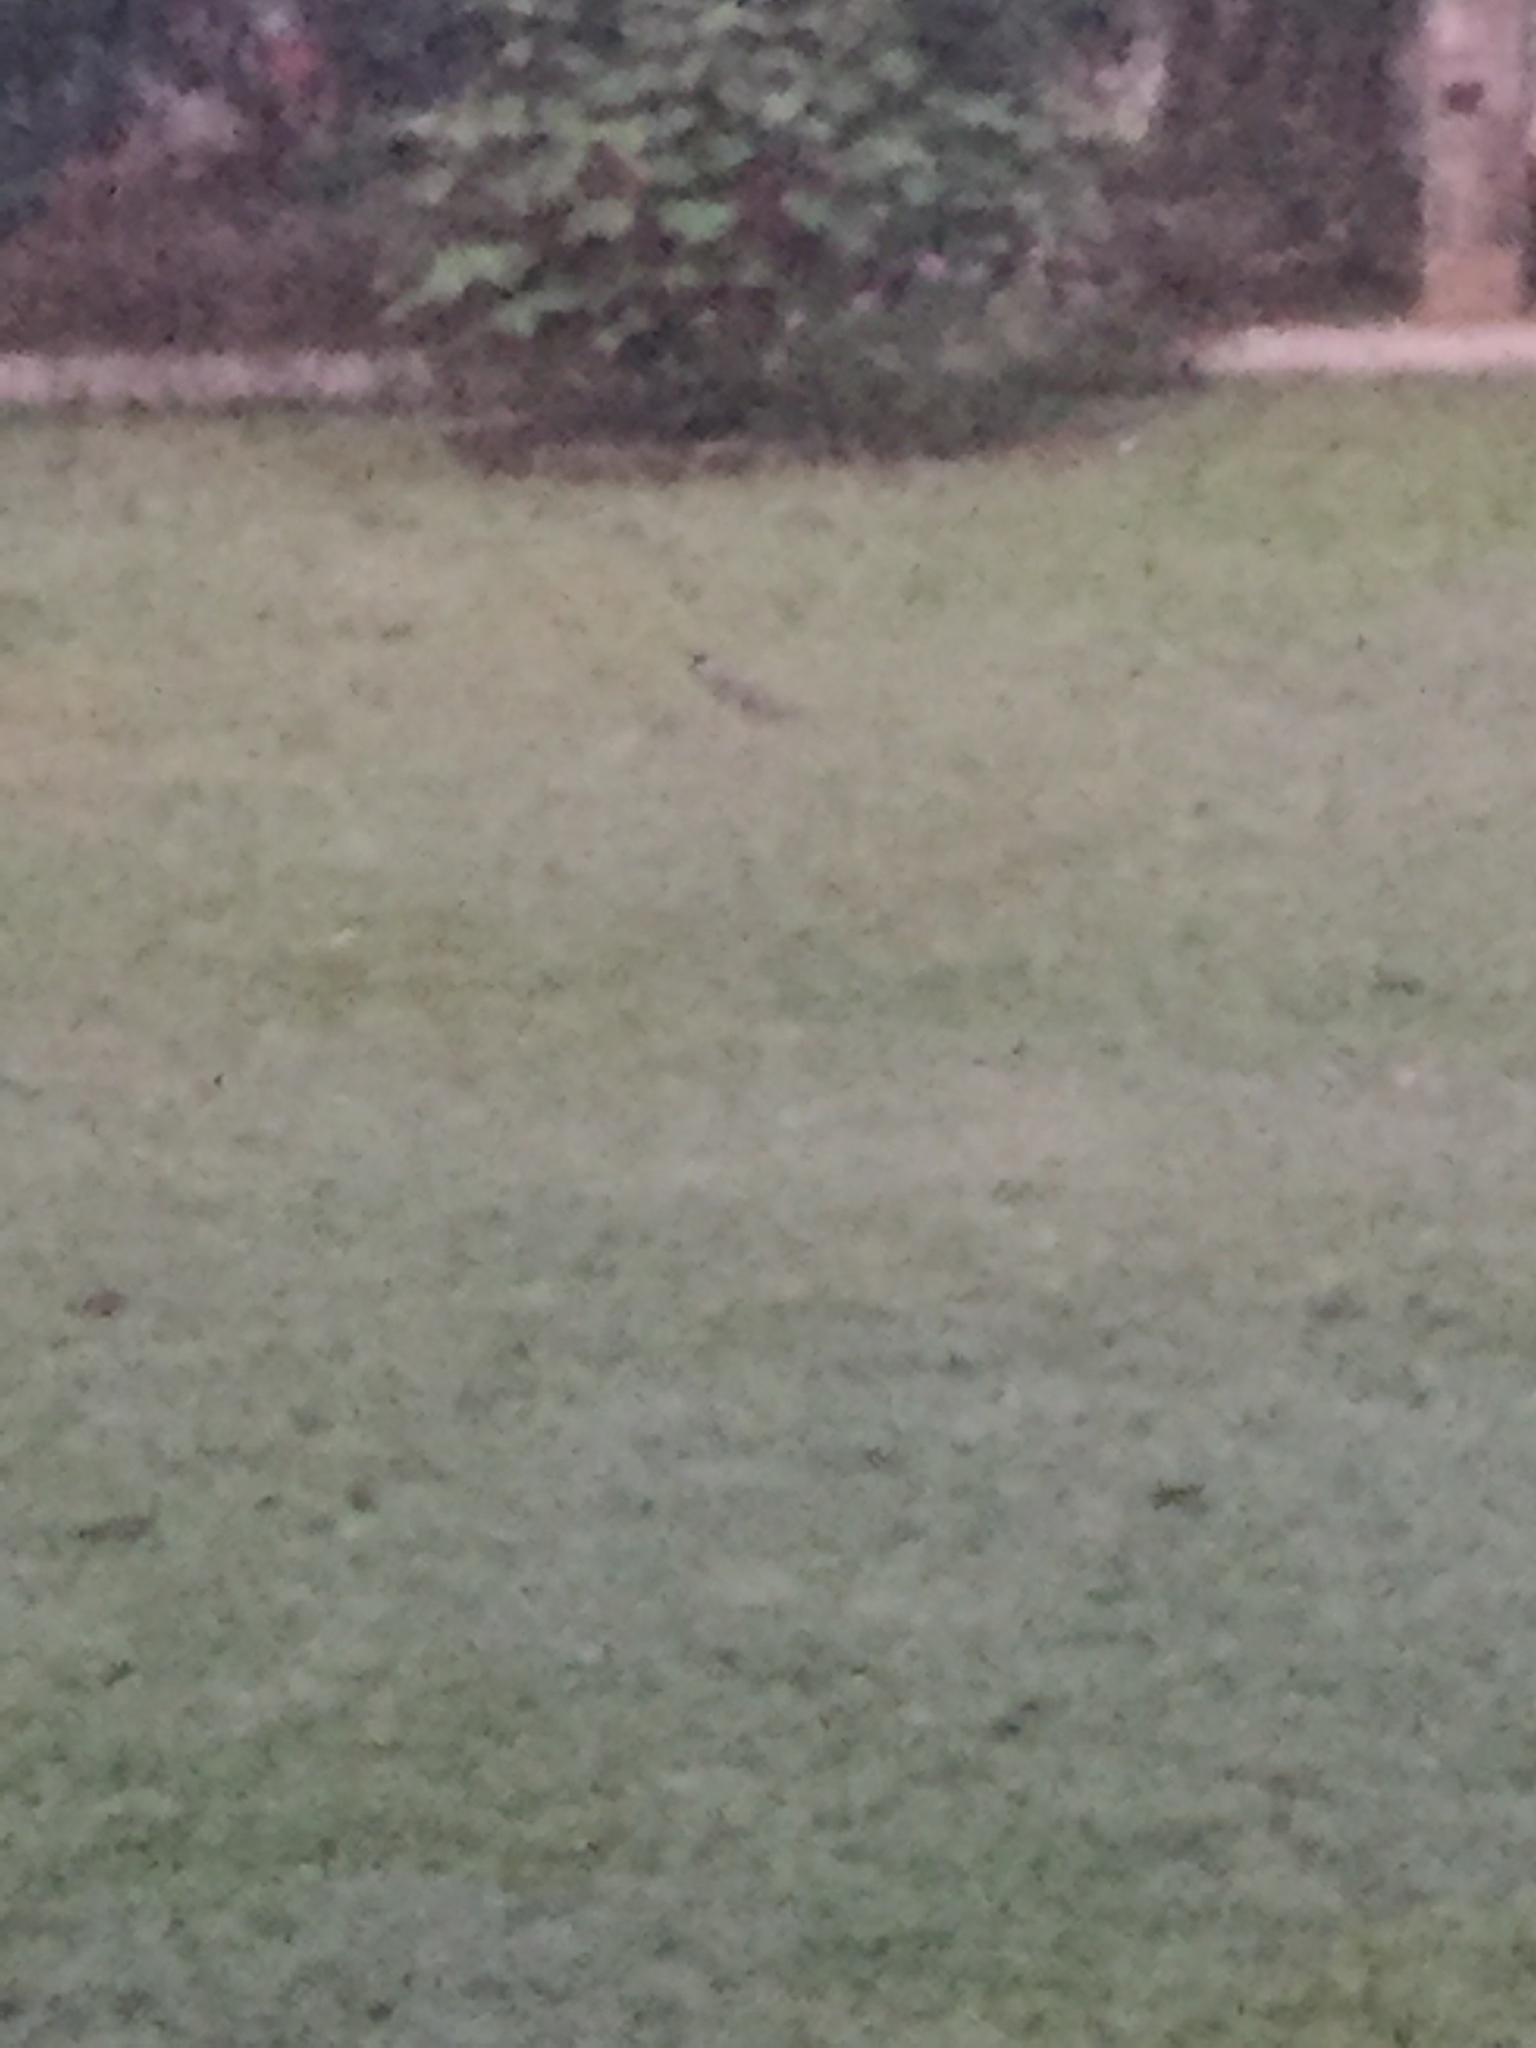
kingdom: Animalia
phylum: Chordata
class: Aves
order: Charadriiformes
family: Charadriidae
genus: Vanellus
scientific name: Vanellus indicus
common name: Red-wattled lapwing
